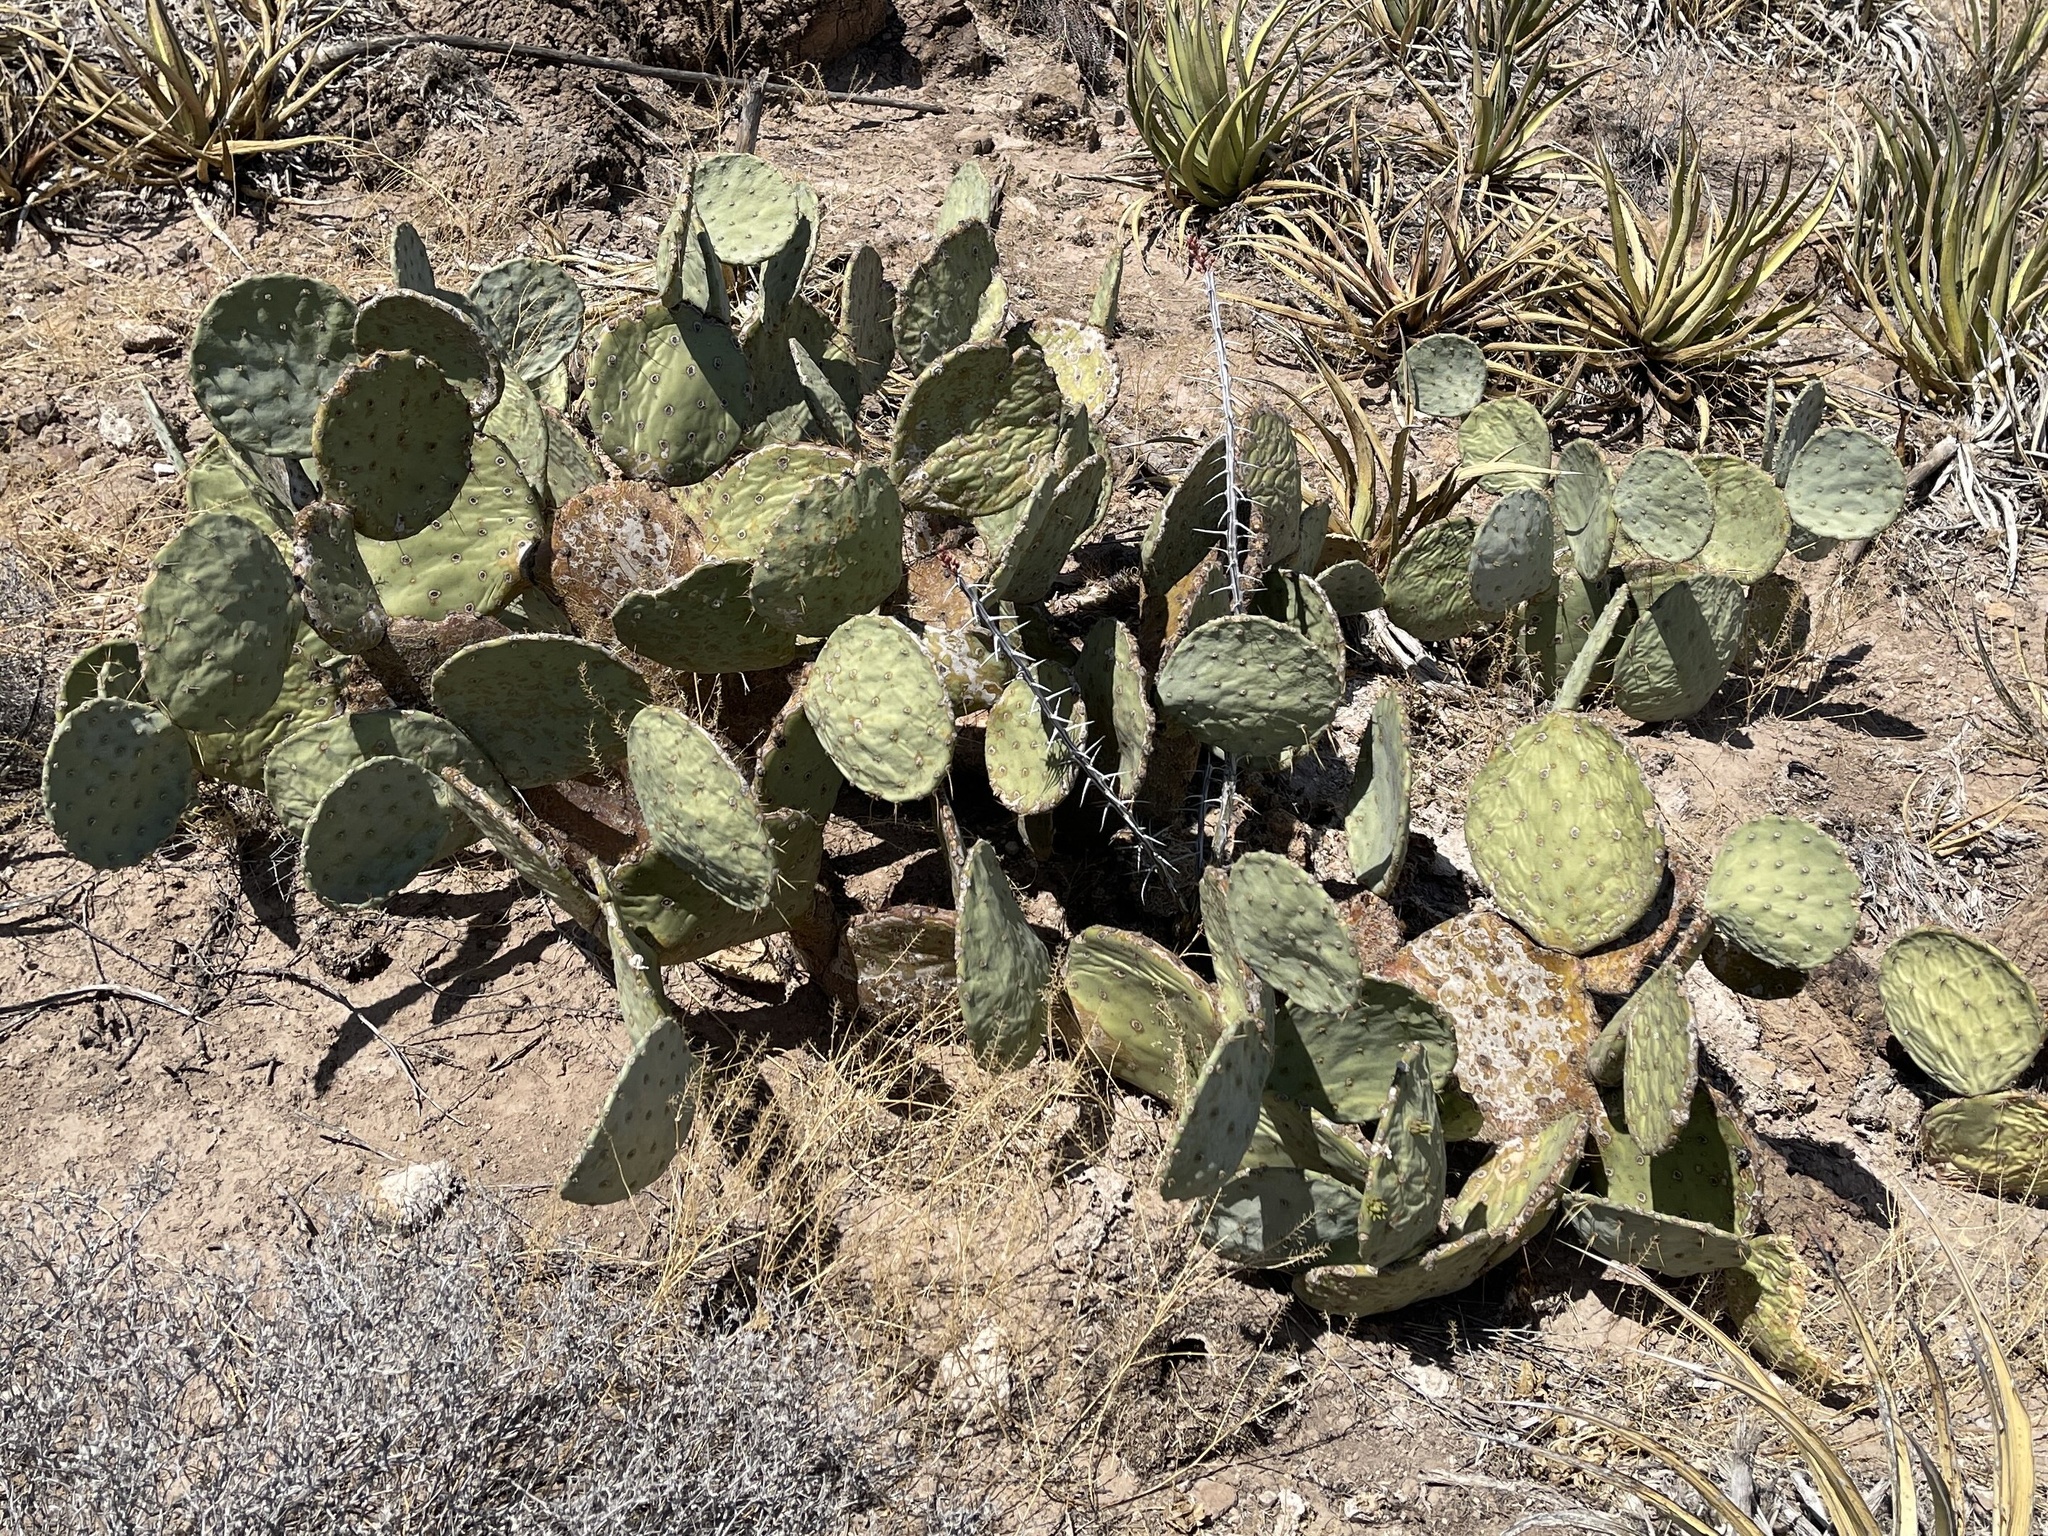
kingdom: Plantae
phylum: Tracheophyta
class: Magnoliopsida
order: Caryophyllales
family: Cactaceae
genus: Opuntia
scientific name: Opuntia engelmannii
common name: Cactus-apple
